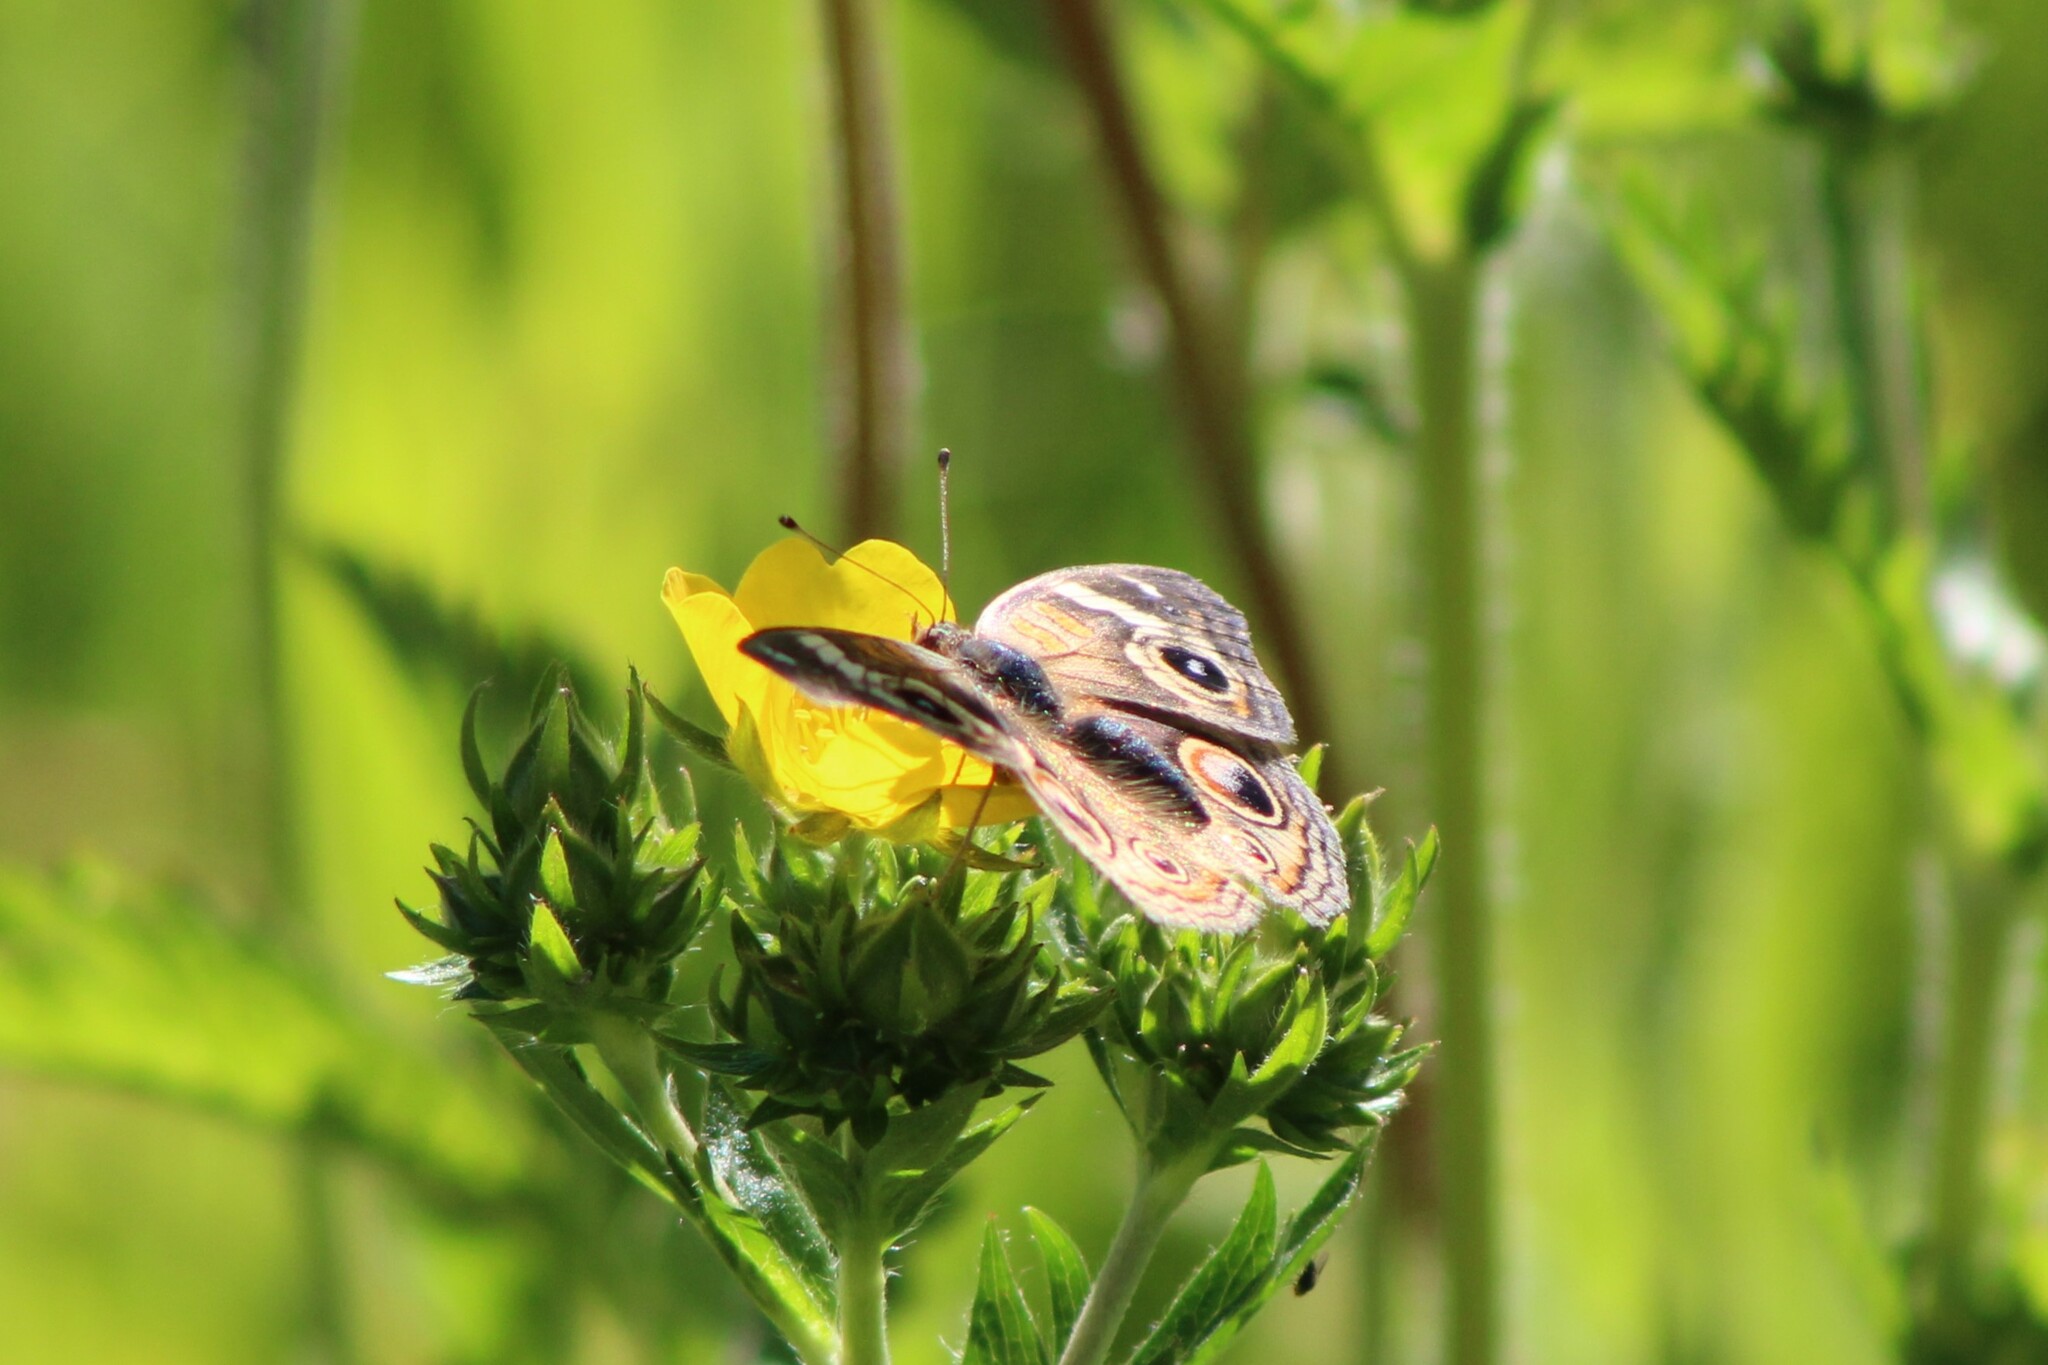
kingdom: Animalia
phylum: Arthropoda
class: Insecta
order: Lepidoptera
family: Nymphalidae
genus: Junonia
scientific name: Junonia grisea
